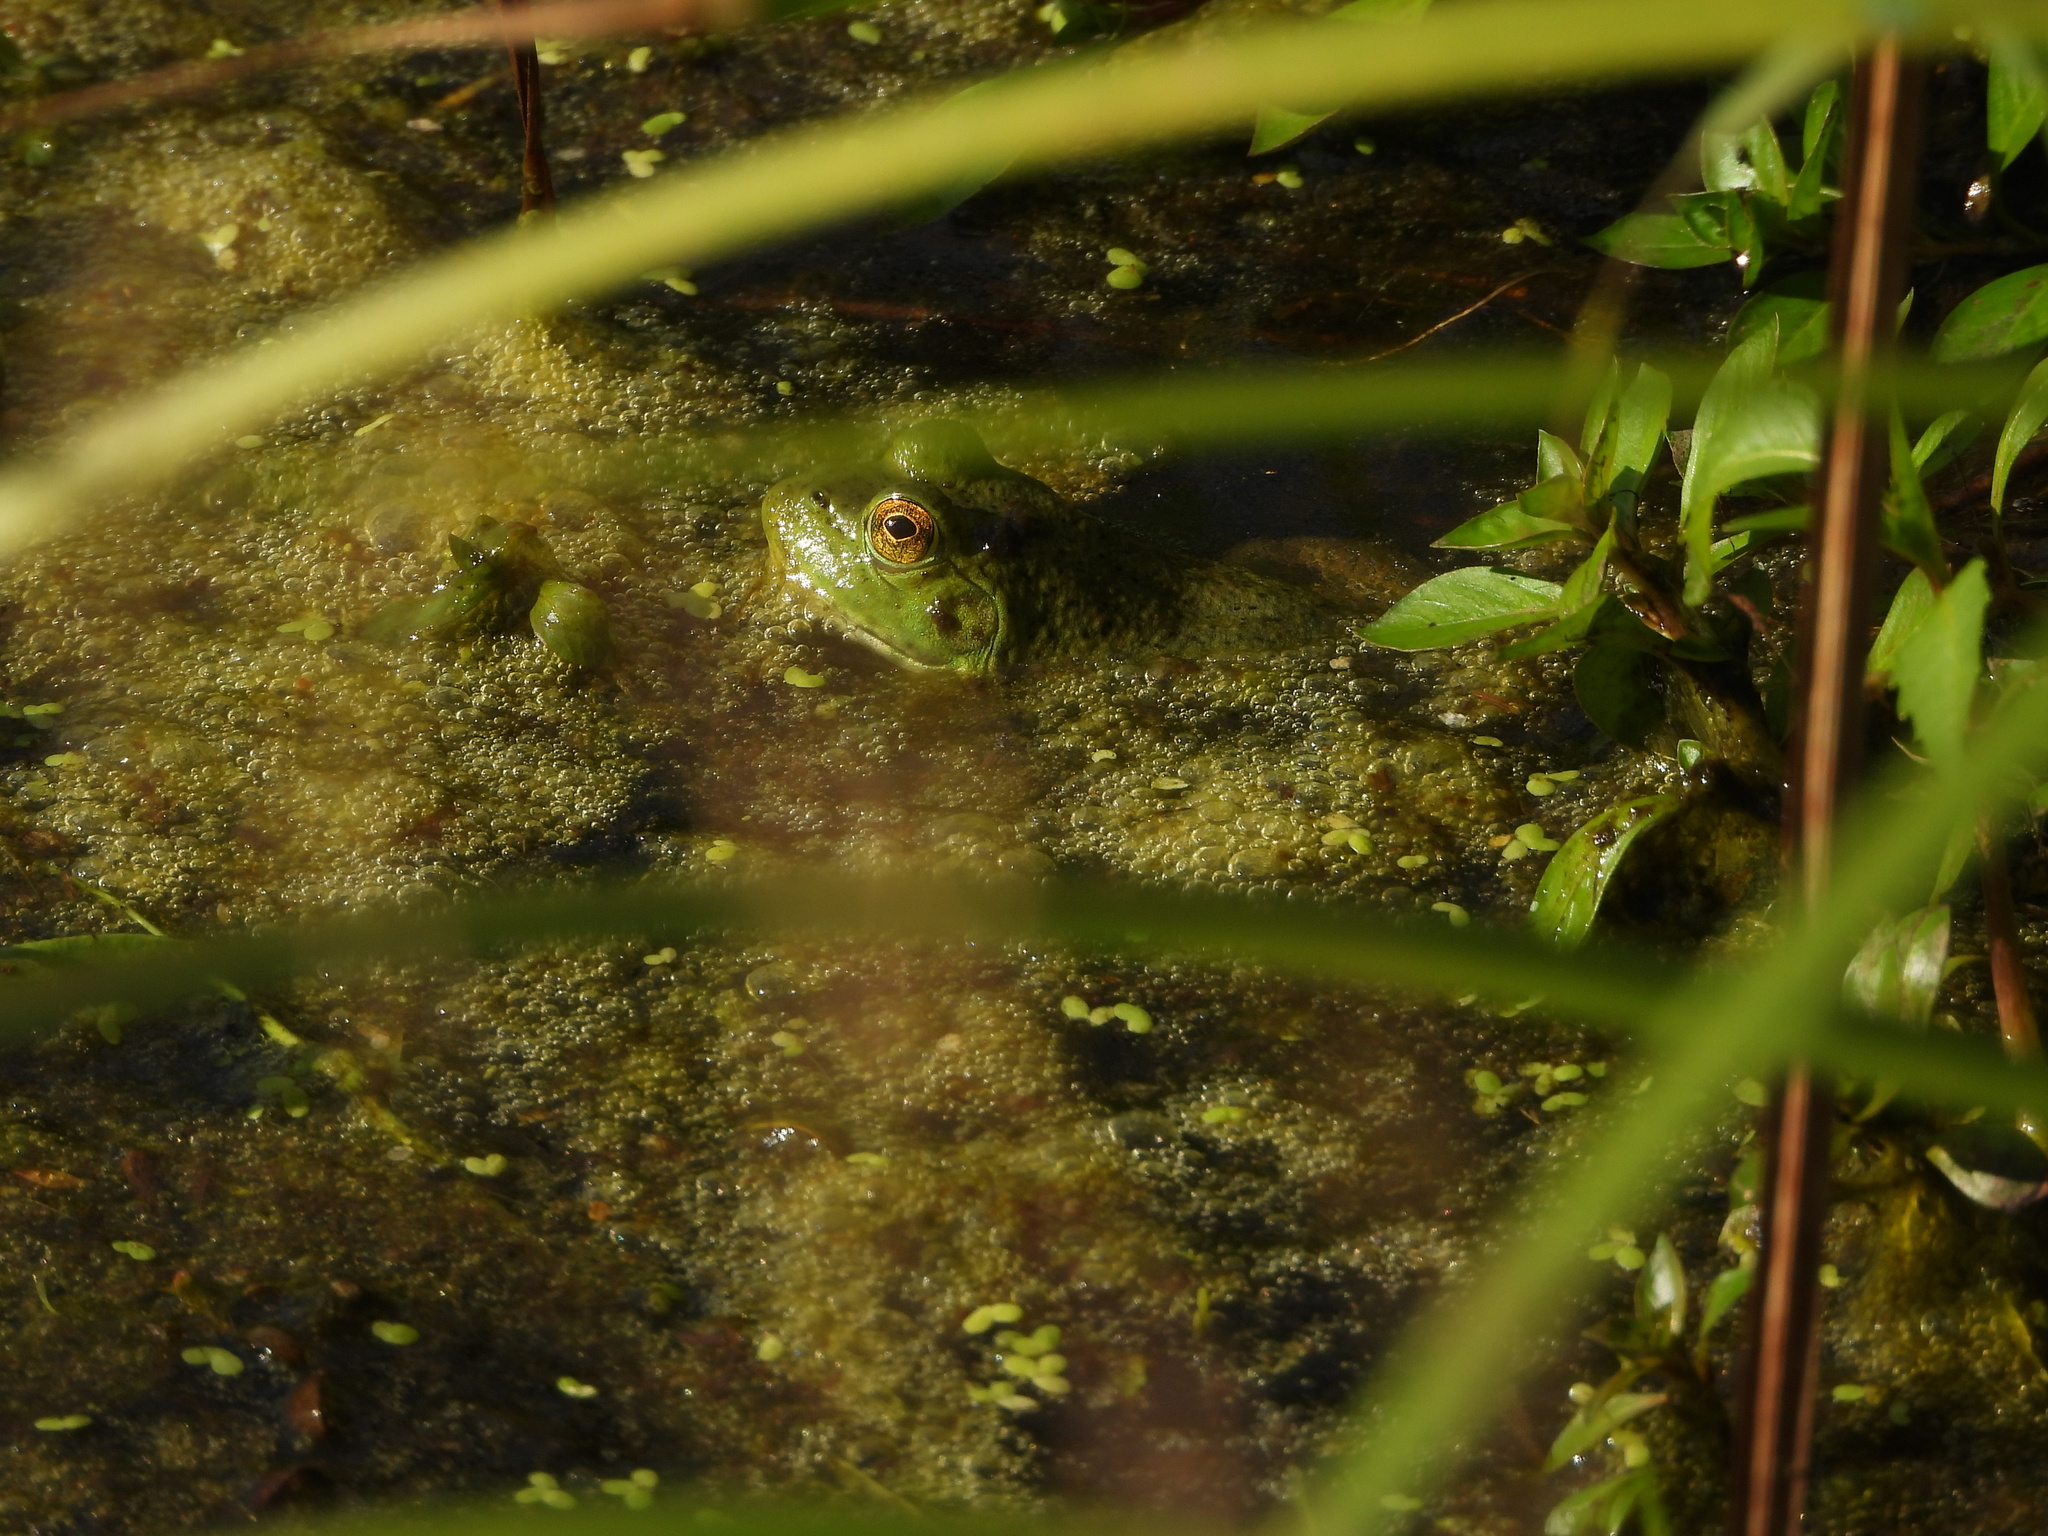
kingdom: Animalia
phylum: Chordata
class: Amphibia
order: Anura
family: Ranidae
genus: Lithobates
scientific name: Lithobates catesbeianus
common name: American bullfrog
